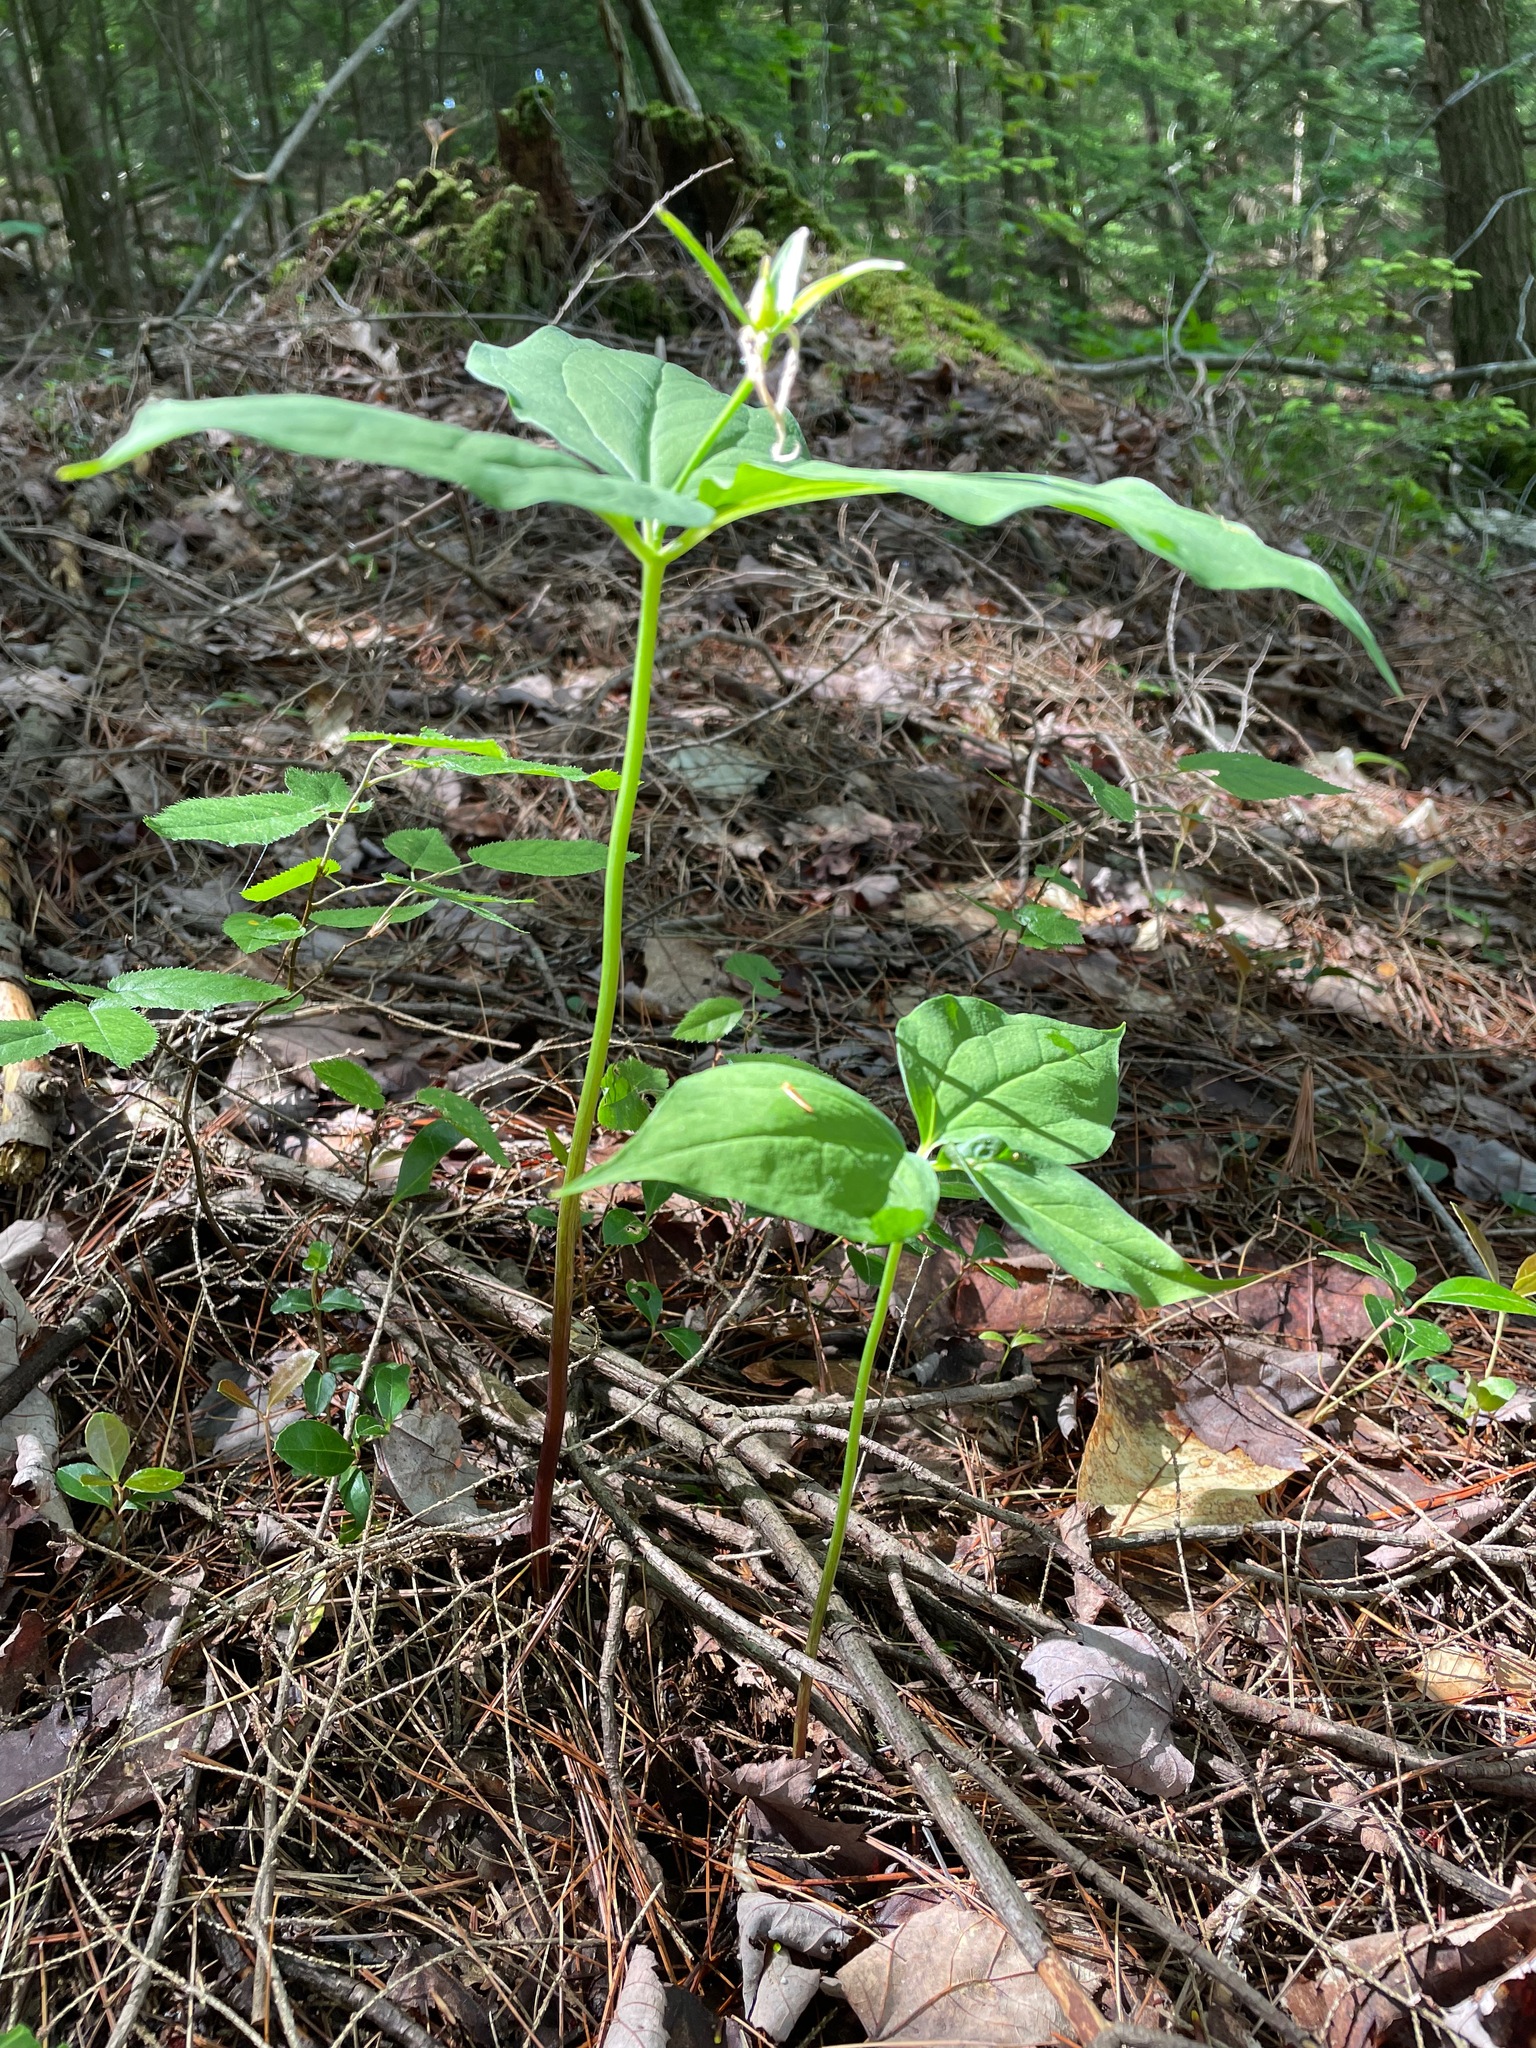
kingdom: Plantae
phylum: Tracheophyta
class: Liliopsida
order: Liliales
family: Melanthiaceae
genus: Trillium
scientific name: Trillium undulatum
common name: Paint trillium
